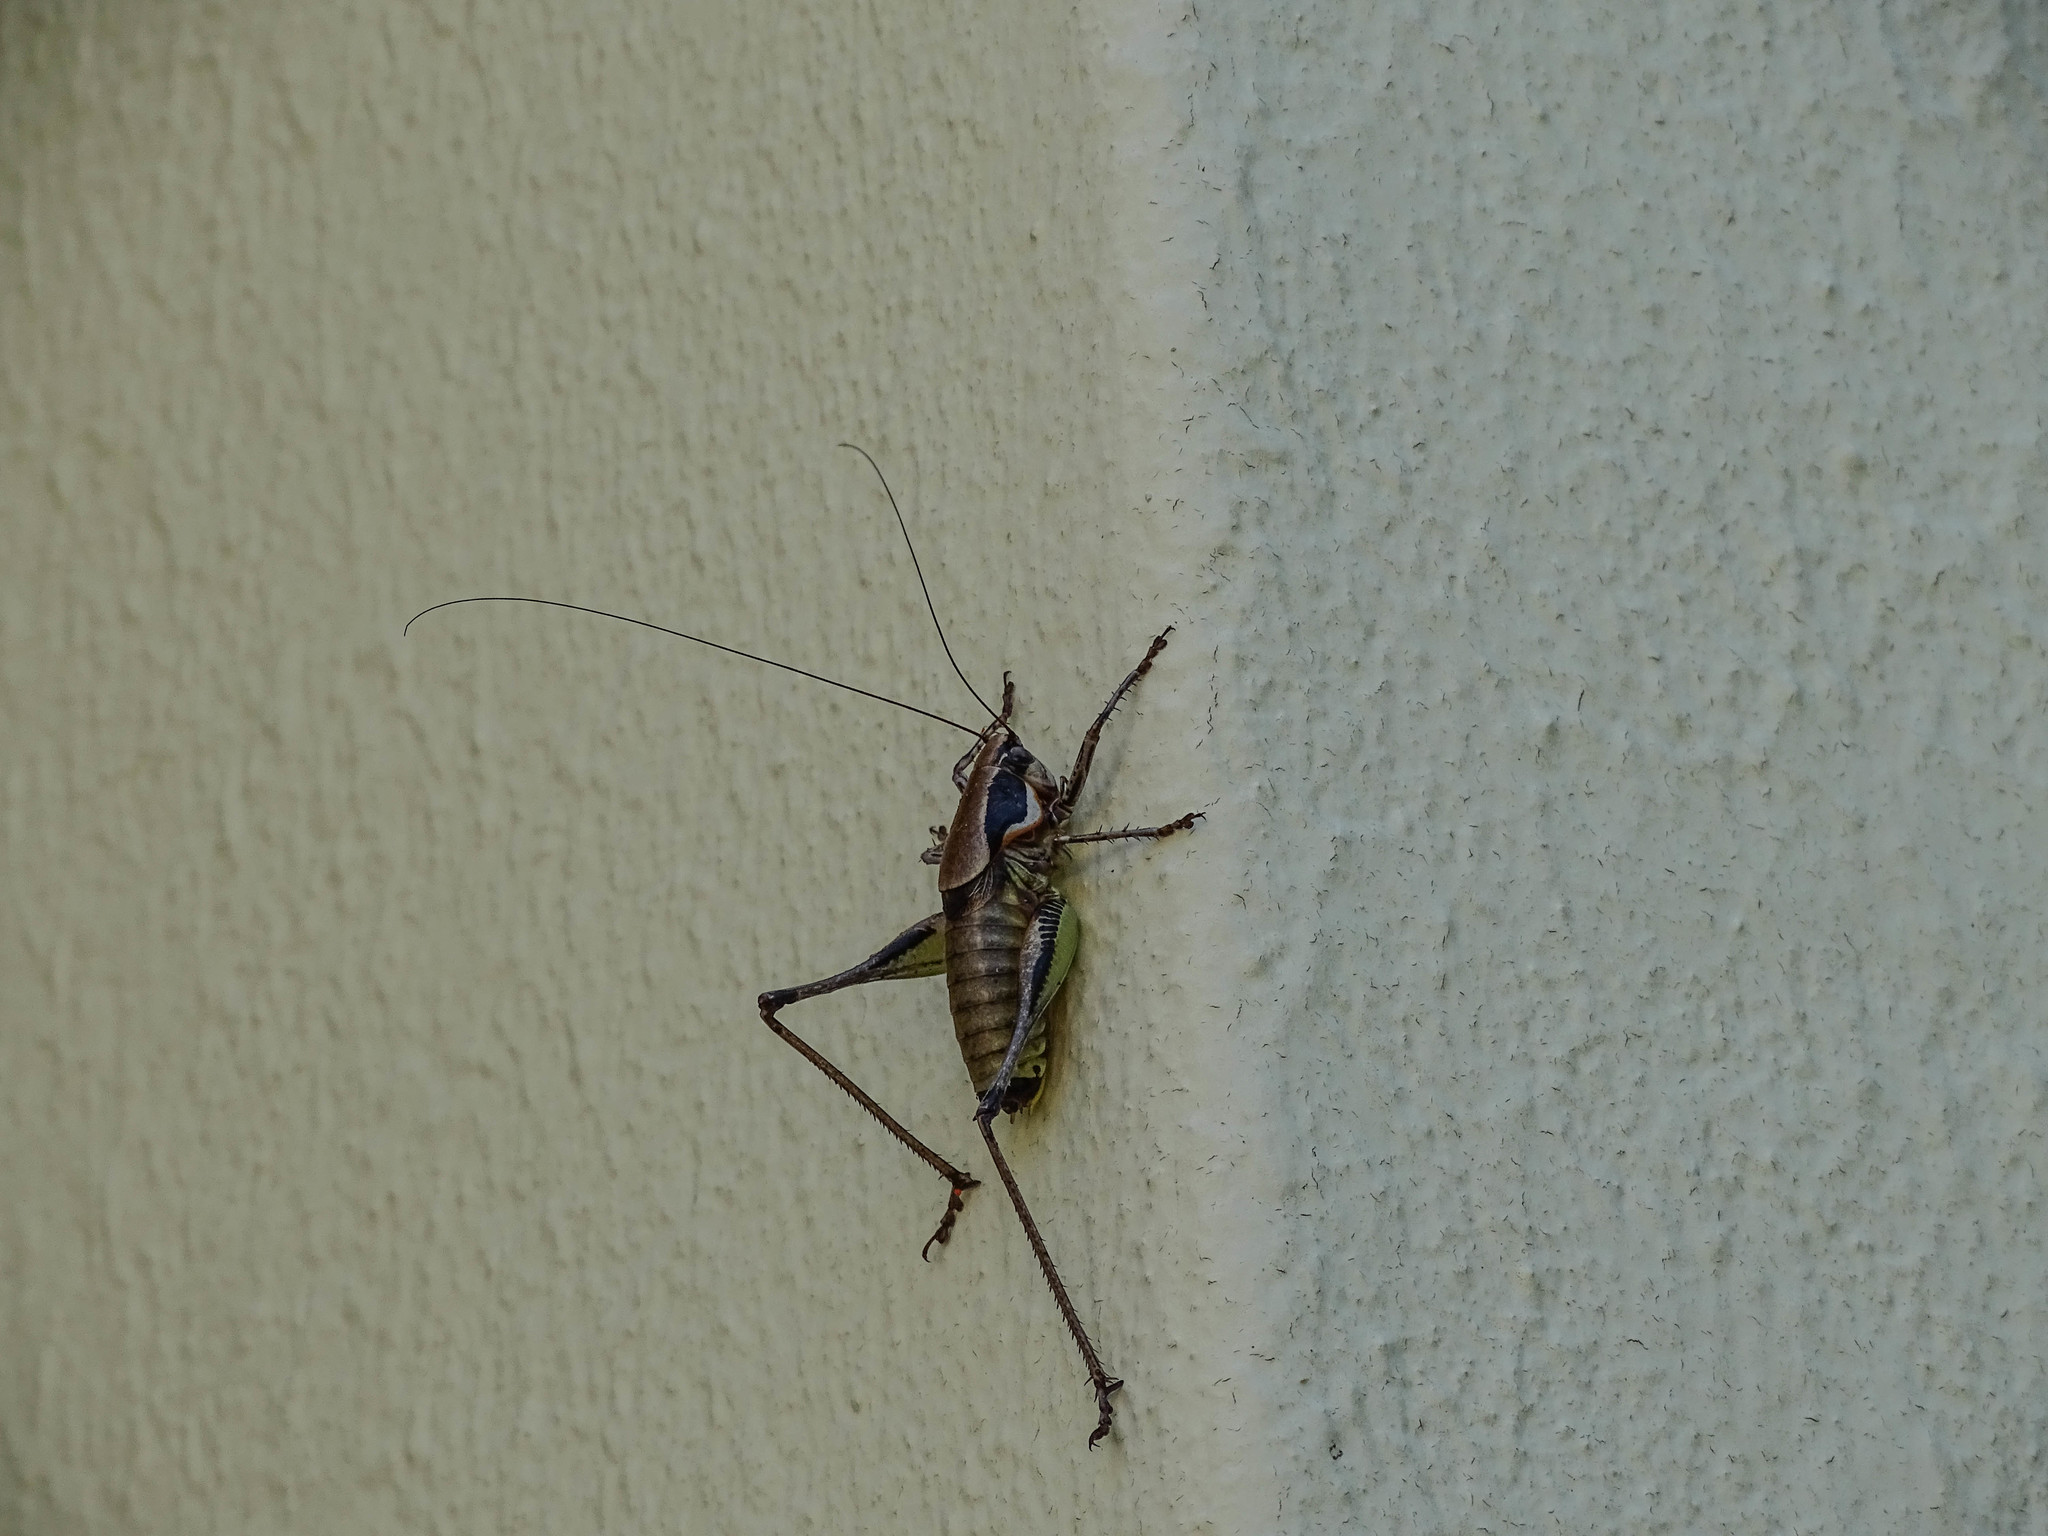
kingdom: Animalia
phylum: Arthropoda
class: Insecta
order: Orthoptera
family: Tettigoniidae
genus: Eupholidoptera
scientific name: Eupholidoptera smyrnensis
